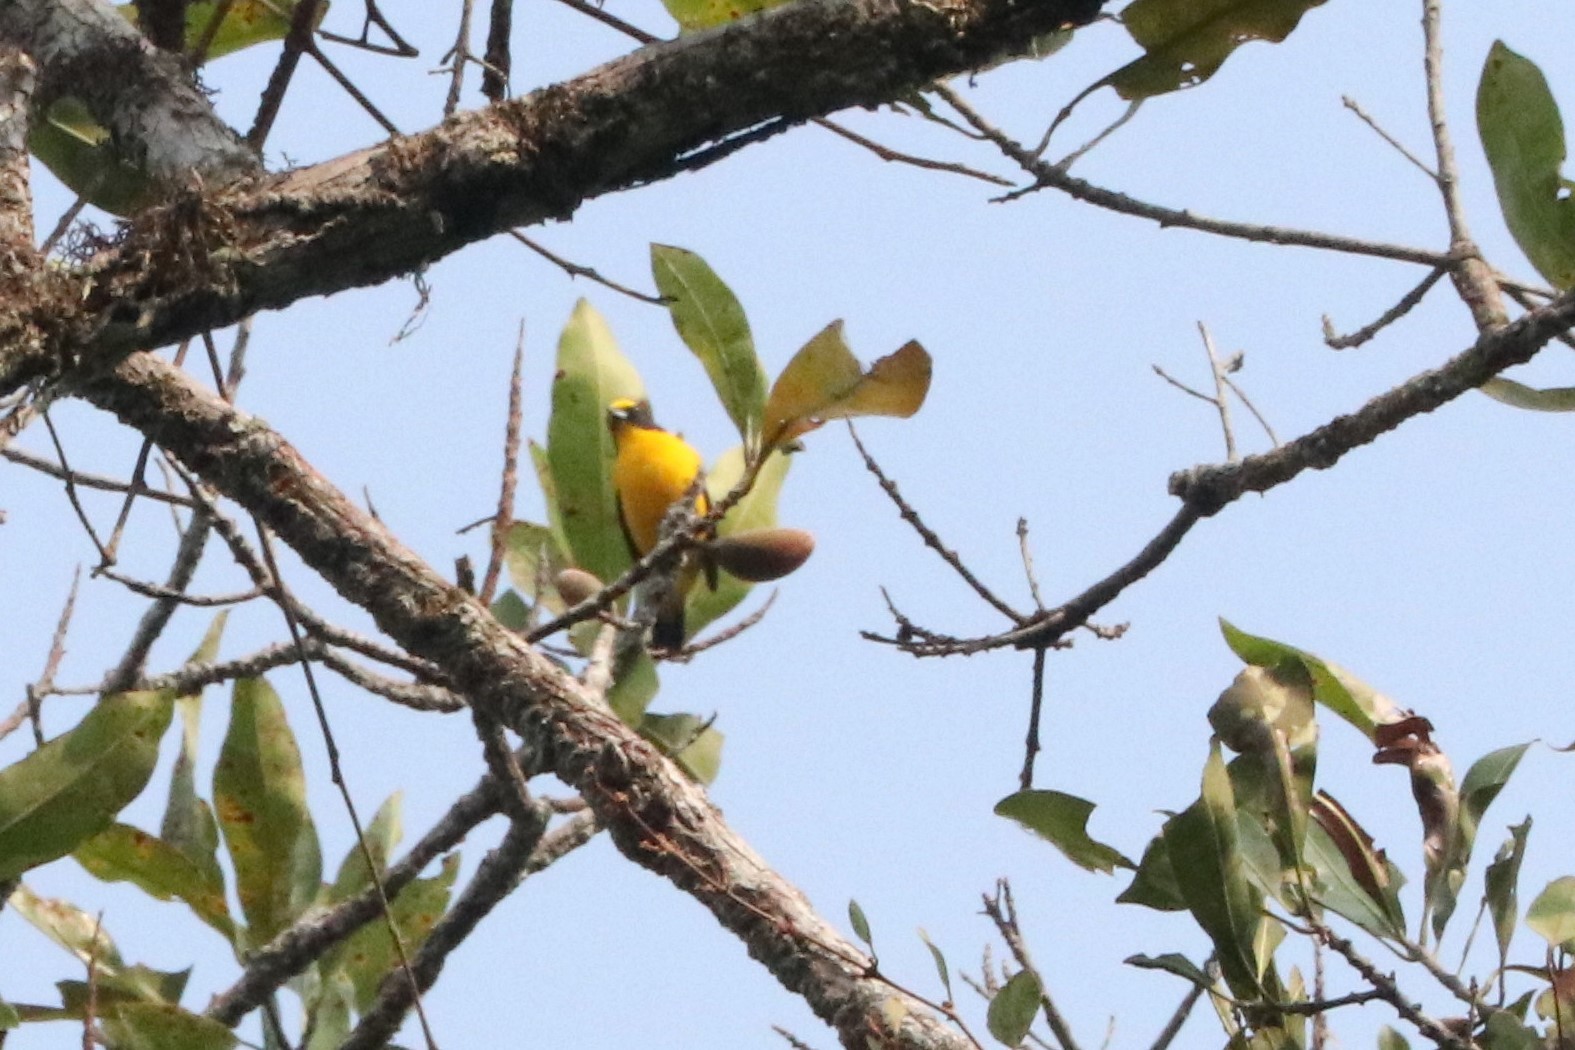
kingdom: Animalia
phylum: Chordata
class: Aves
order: Passeriformes
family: Fringillidae
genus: Euphonia
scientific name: Euphonia laniirostris
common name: Thick-billed euphonia
